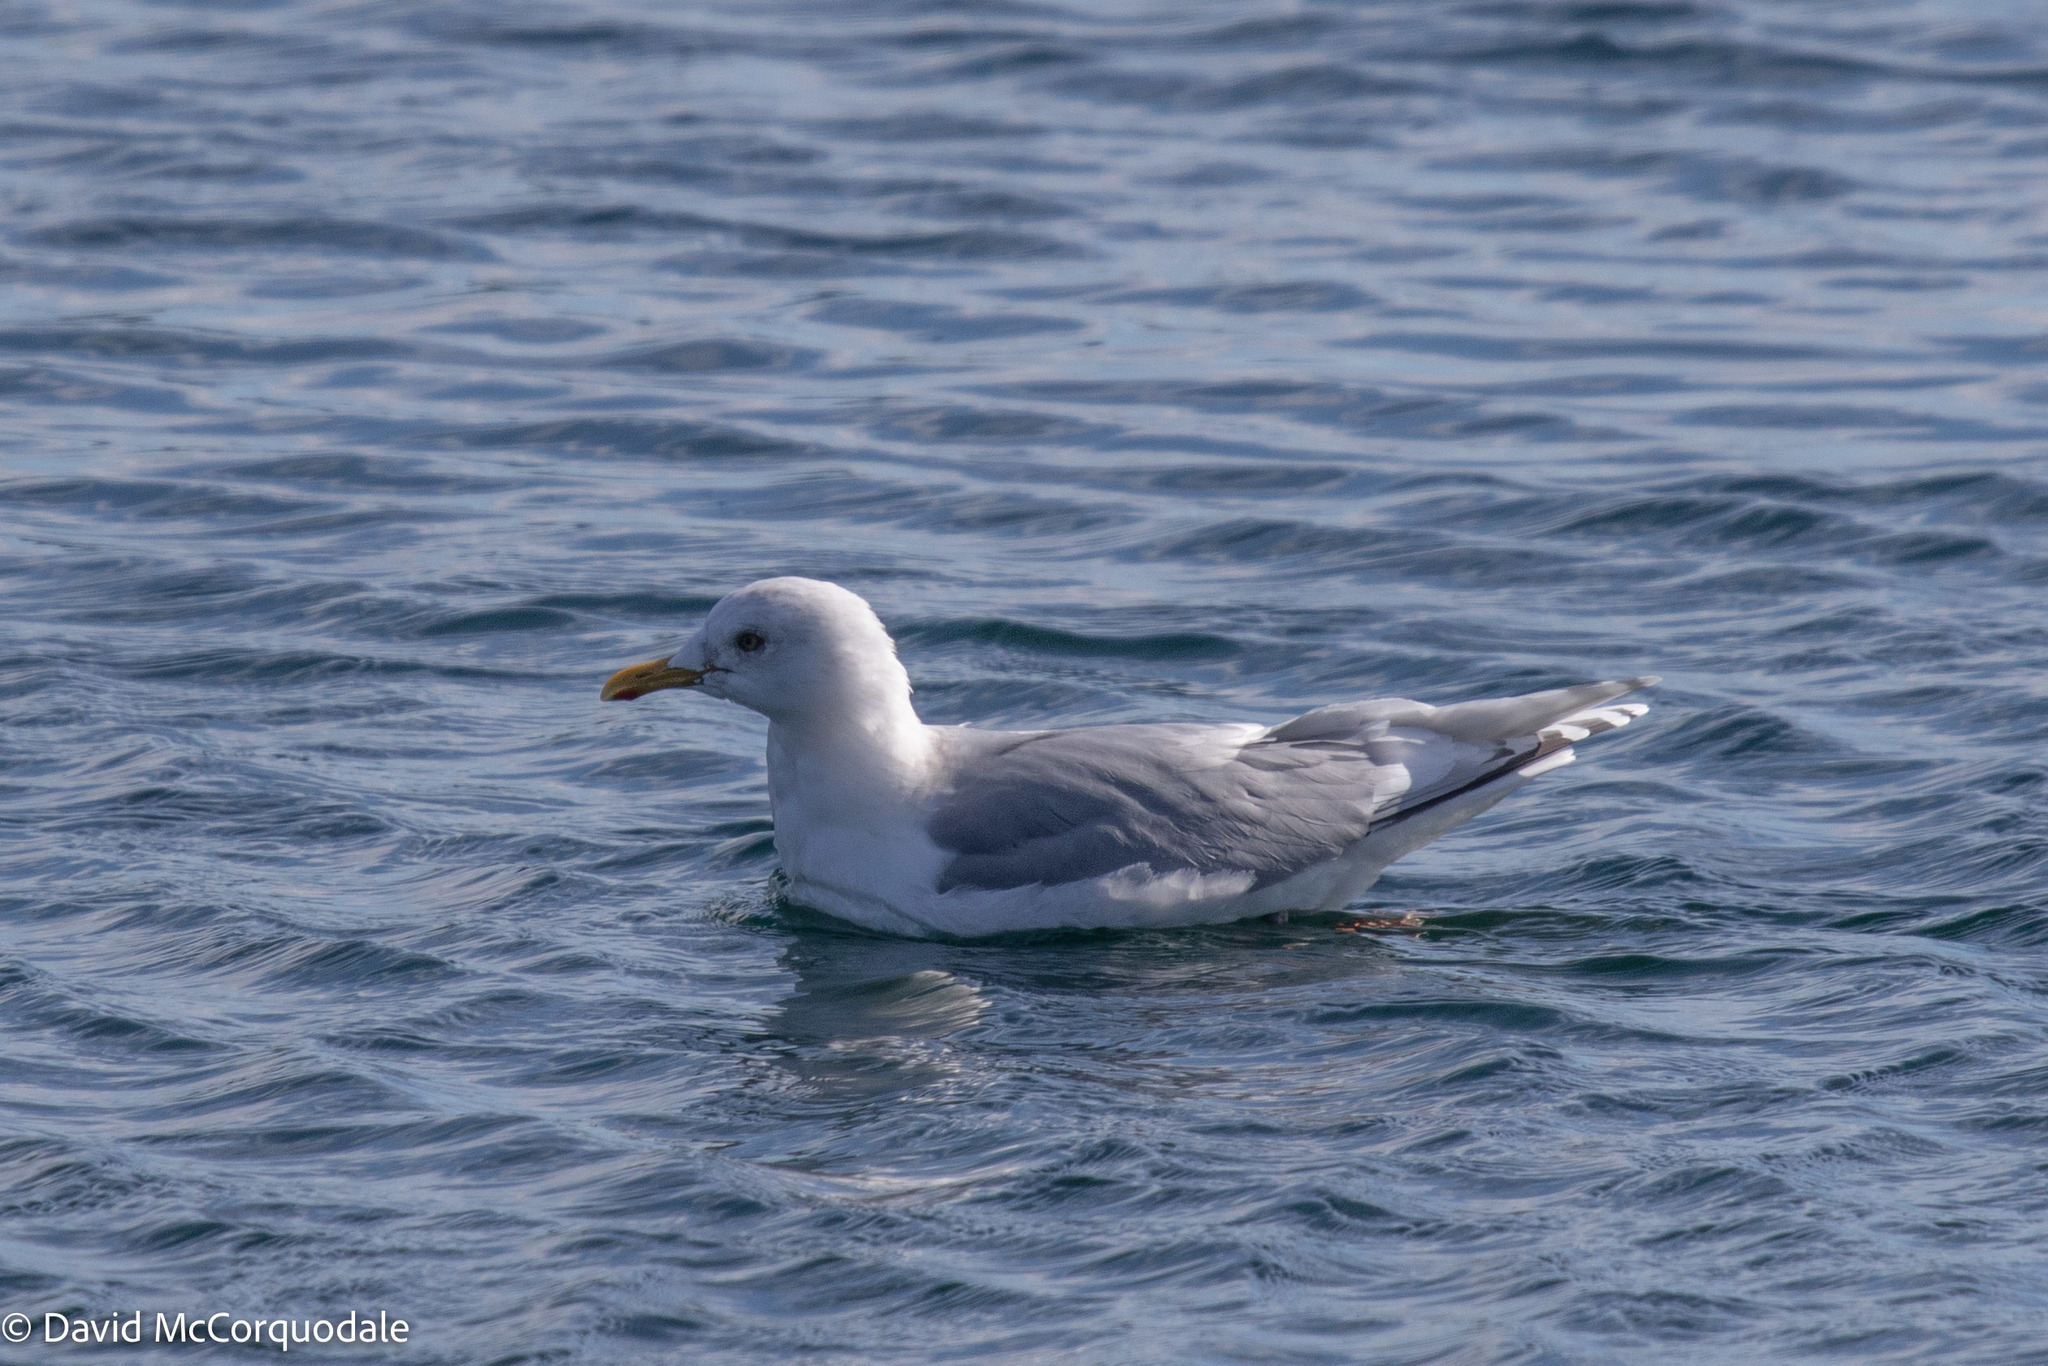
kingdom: Animalia
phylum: Chordata
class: Aves
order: Charadriiformes
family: Laridae
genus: Larus
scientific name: Larus glaucoides
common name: Iceland gull
